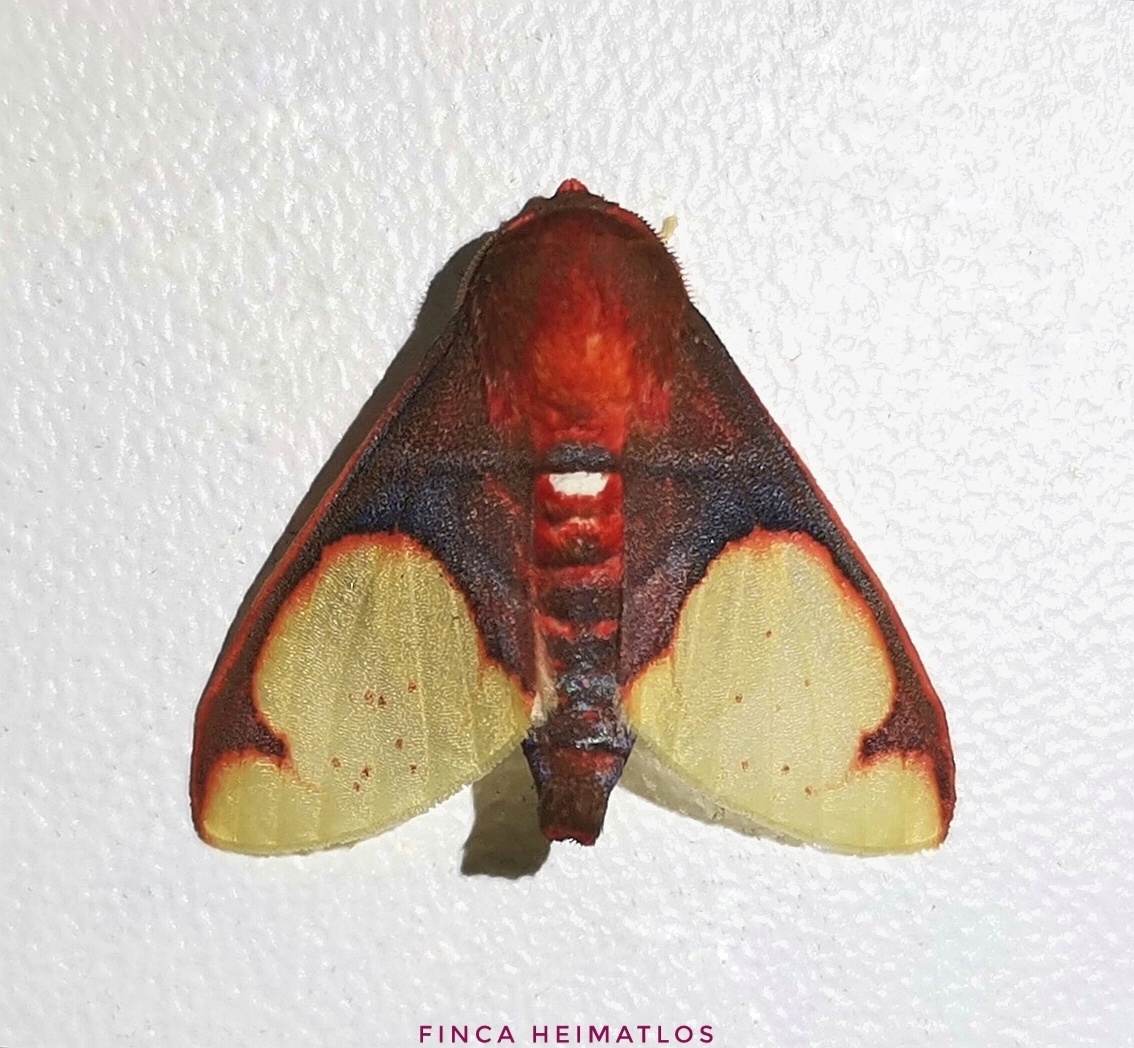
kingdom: Animalia
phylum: Arthropoda
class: Insecta
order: Lepidoptera
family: Erebidae
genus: Neonerita
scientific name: Neonerita incarnata
